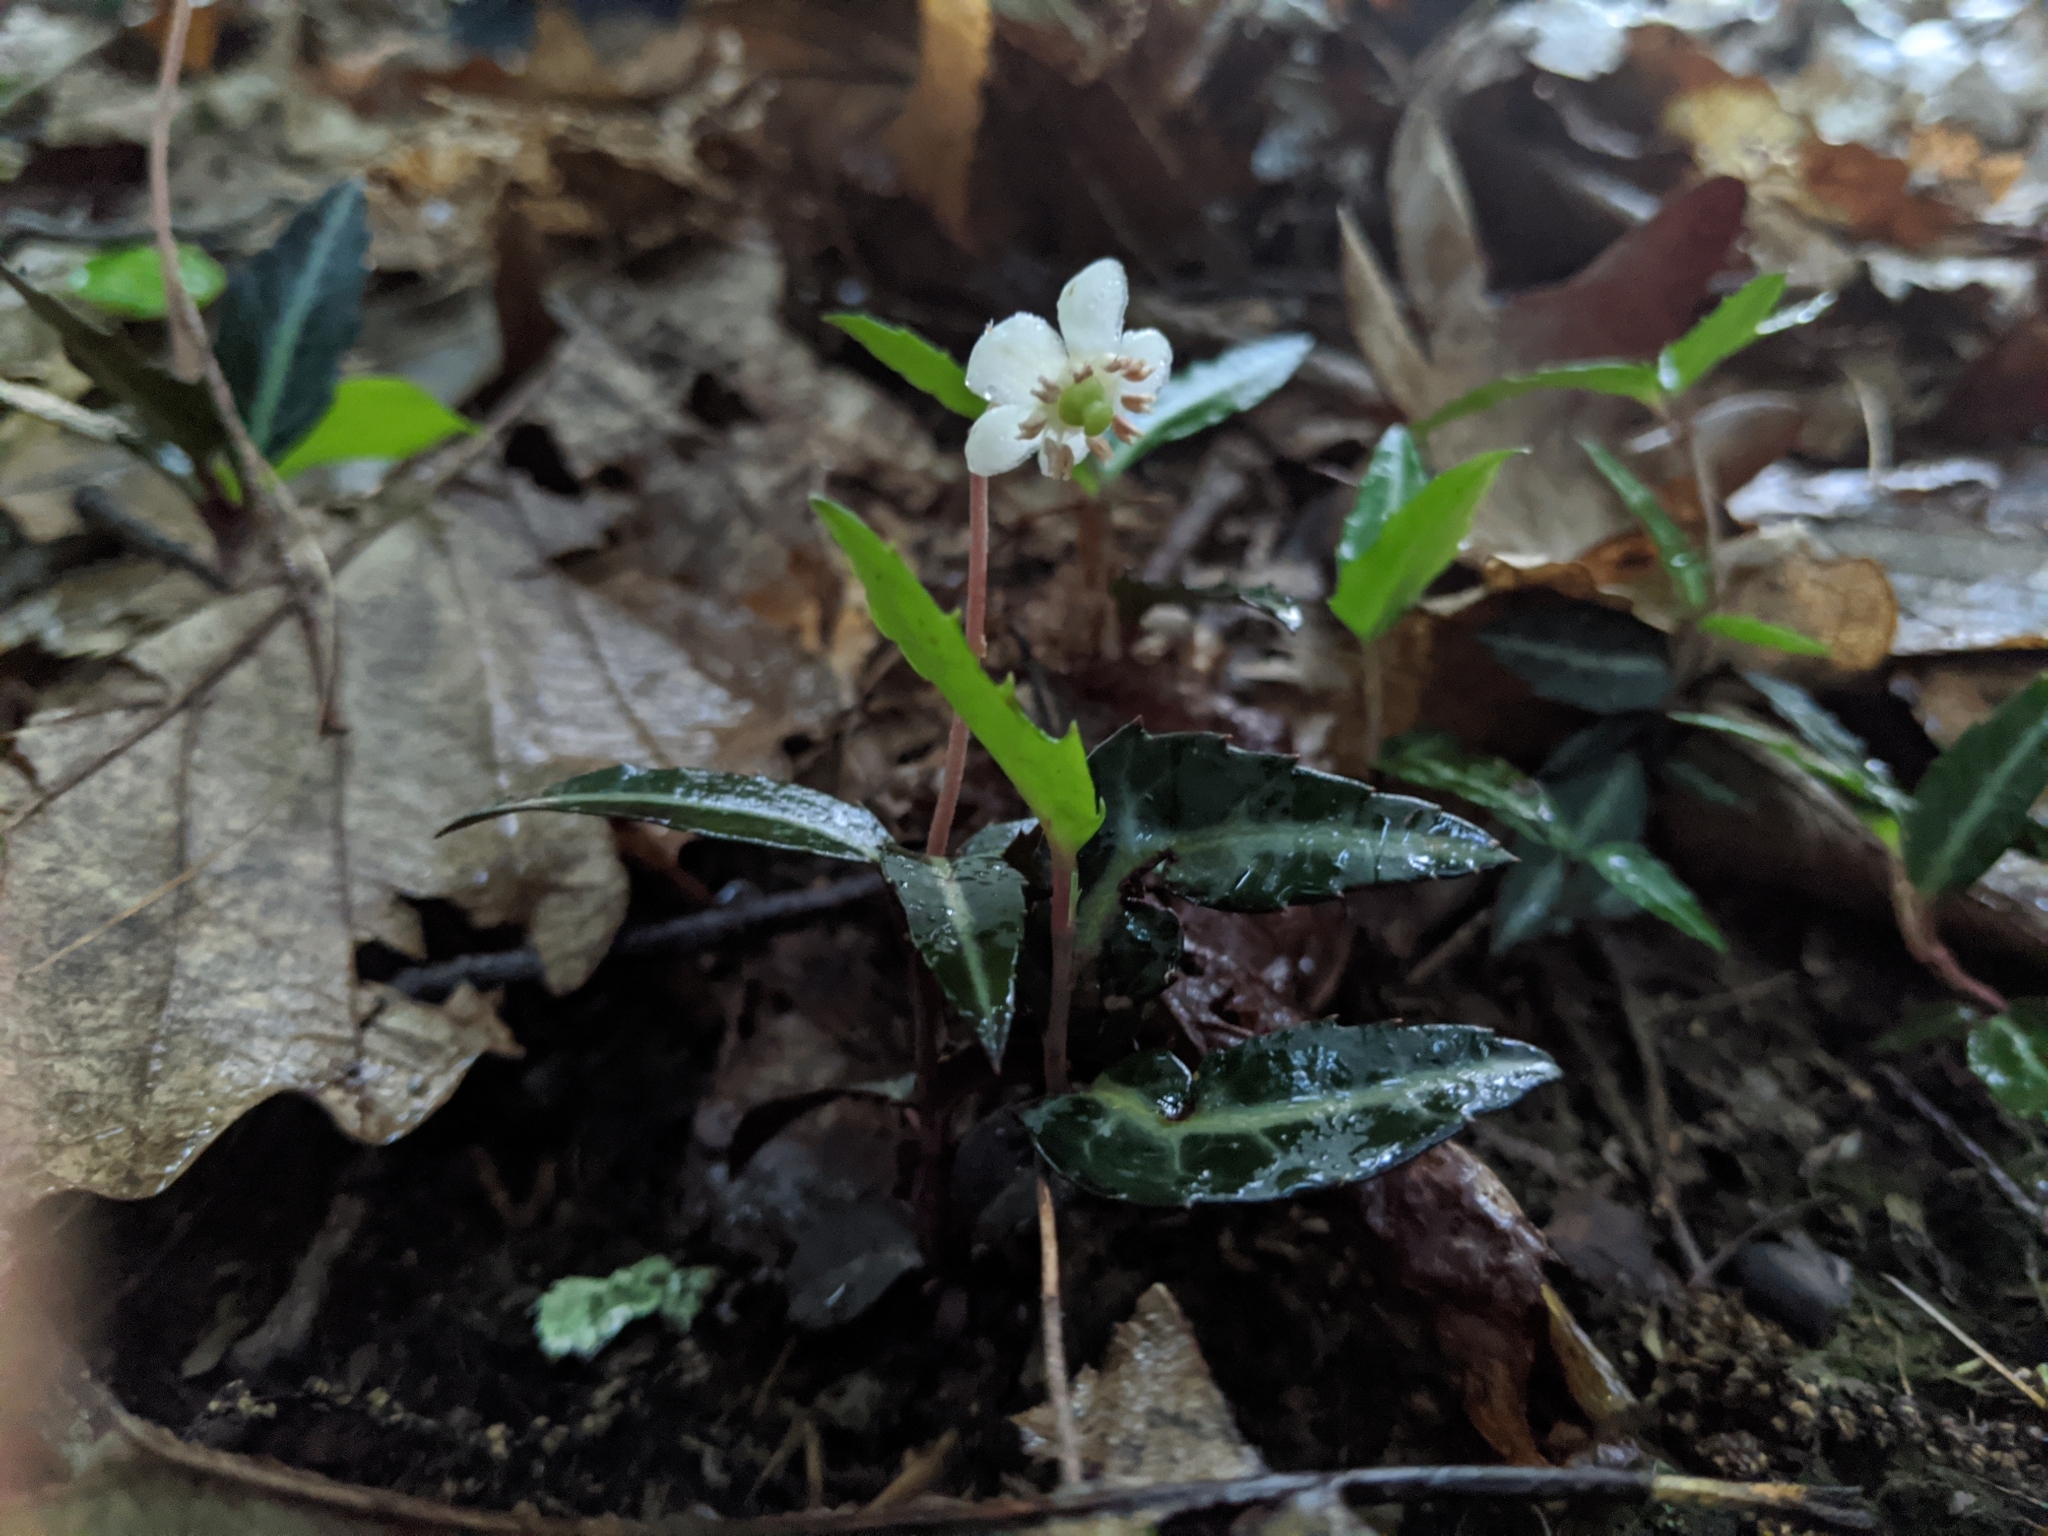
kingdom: Plantae
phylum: Tracheophyta
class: Magnoliopsida
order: Ericales
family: Ericaceae
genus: Chimaphila
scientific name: Chimaphila maculata
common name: Spotted pipsissewa
